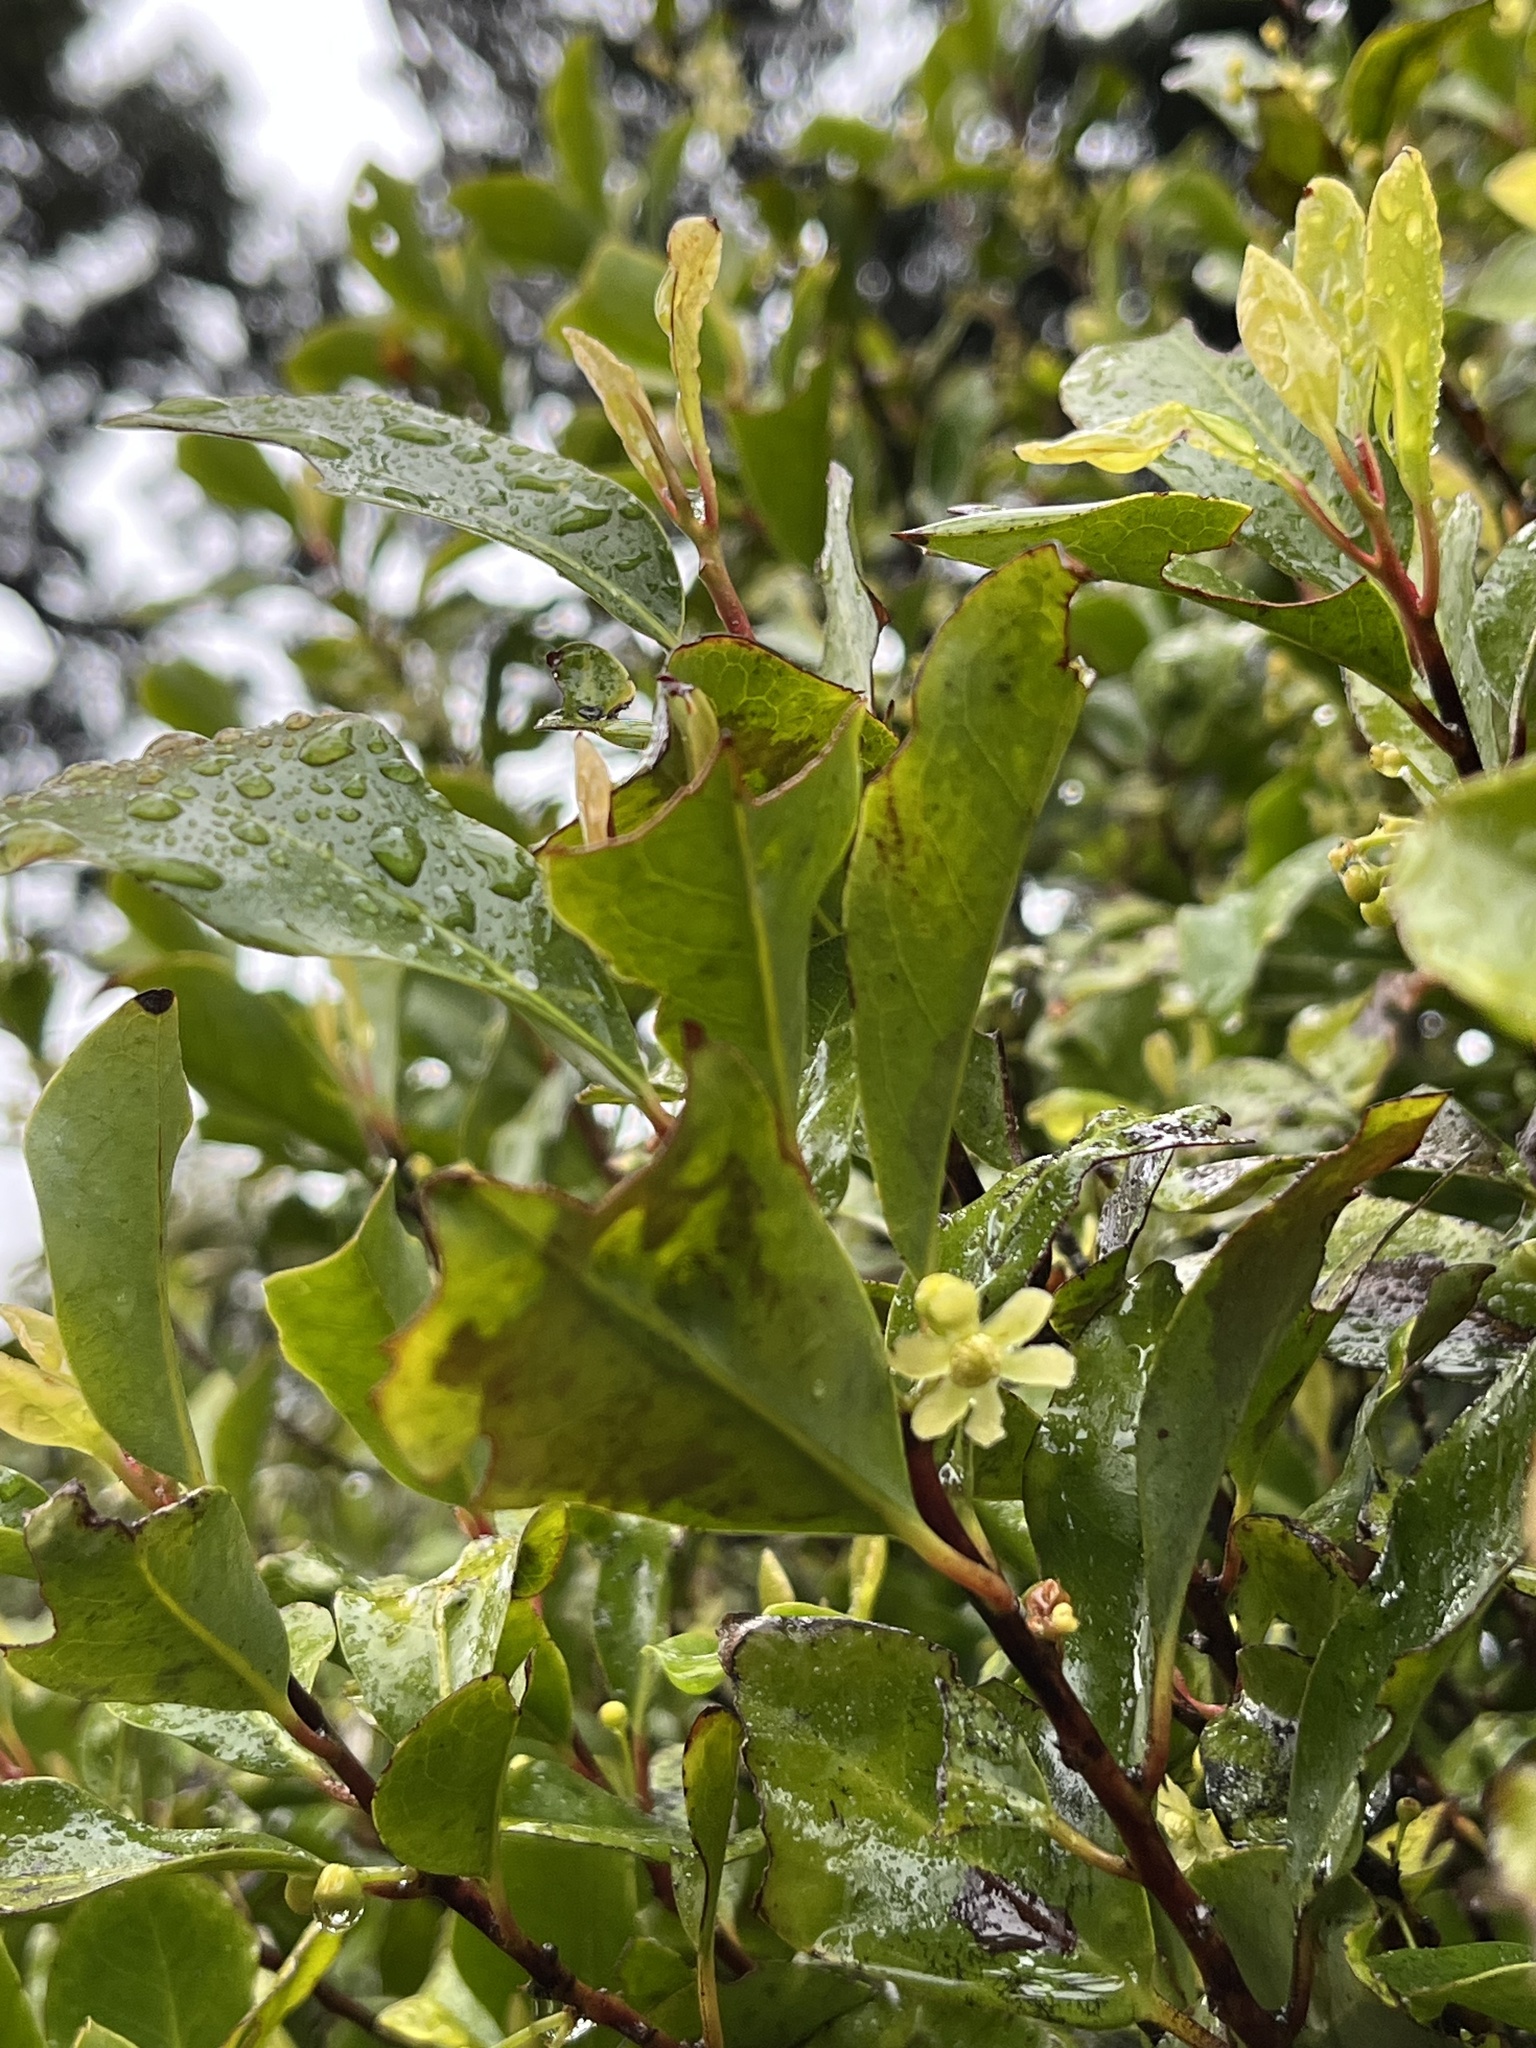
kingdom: Plantae
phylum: Tracheophyta
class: Magnoliopsida
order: Canellales
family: Winteraceae
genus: Pseudowintera
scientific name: Pseudowintera axillaris
